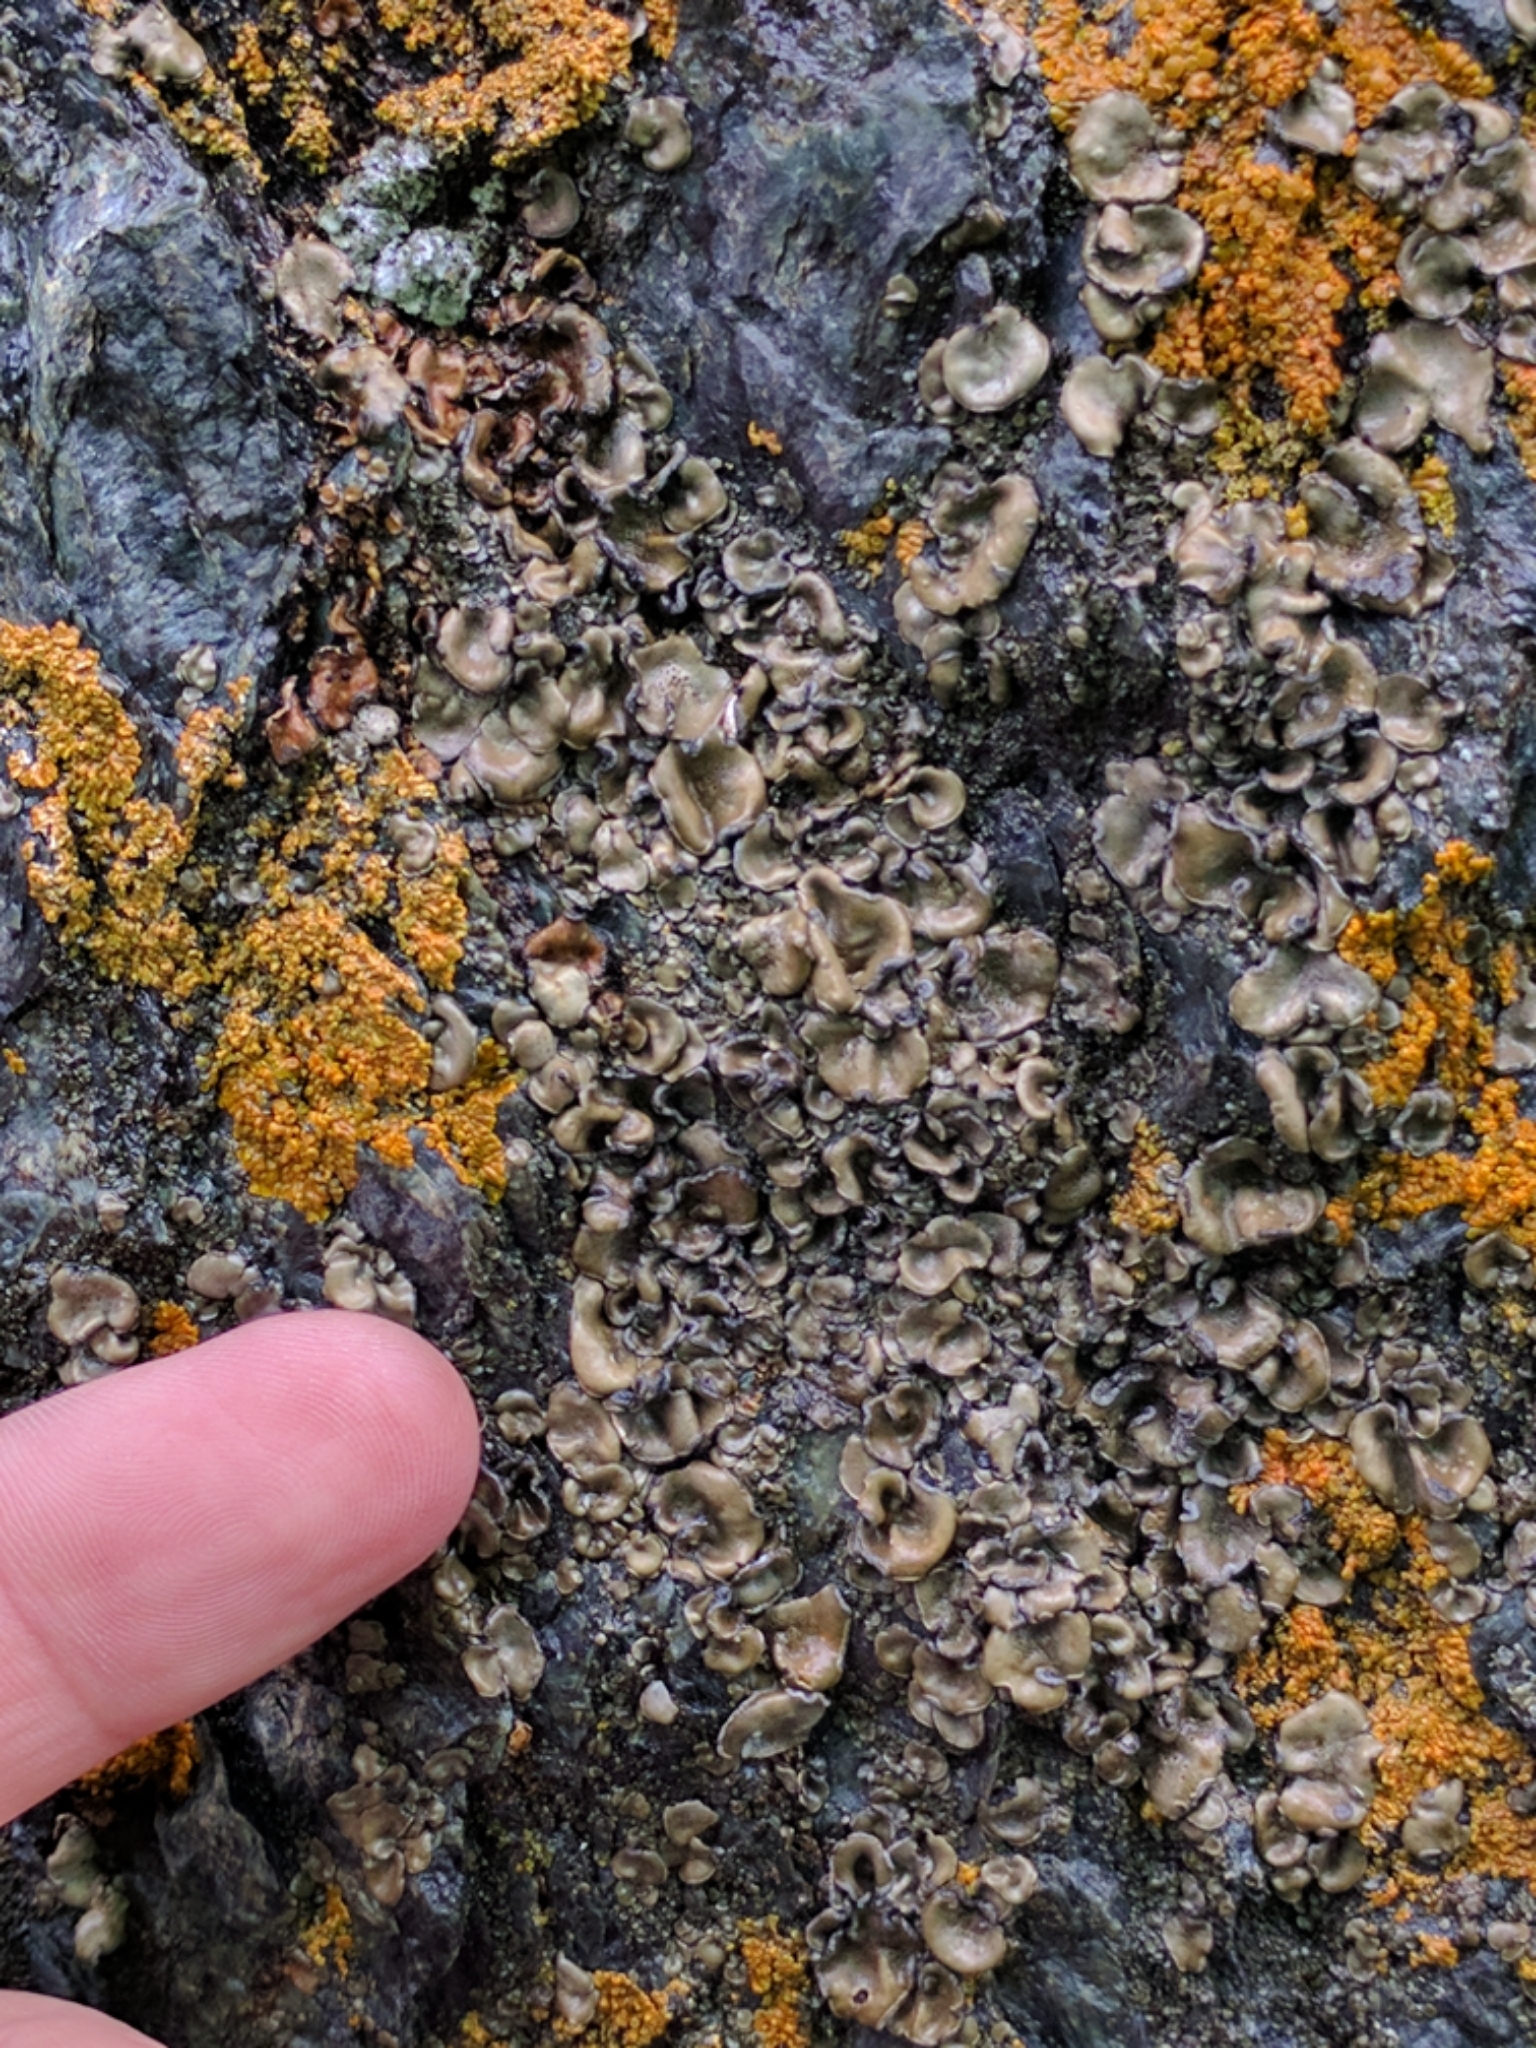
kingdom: Fungi
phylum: Ascomycota
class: Lichinomycetes
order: Lichinales
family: Peltulaceae
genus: Peltula
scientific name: Peltula euploca
